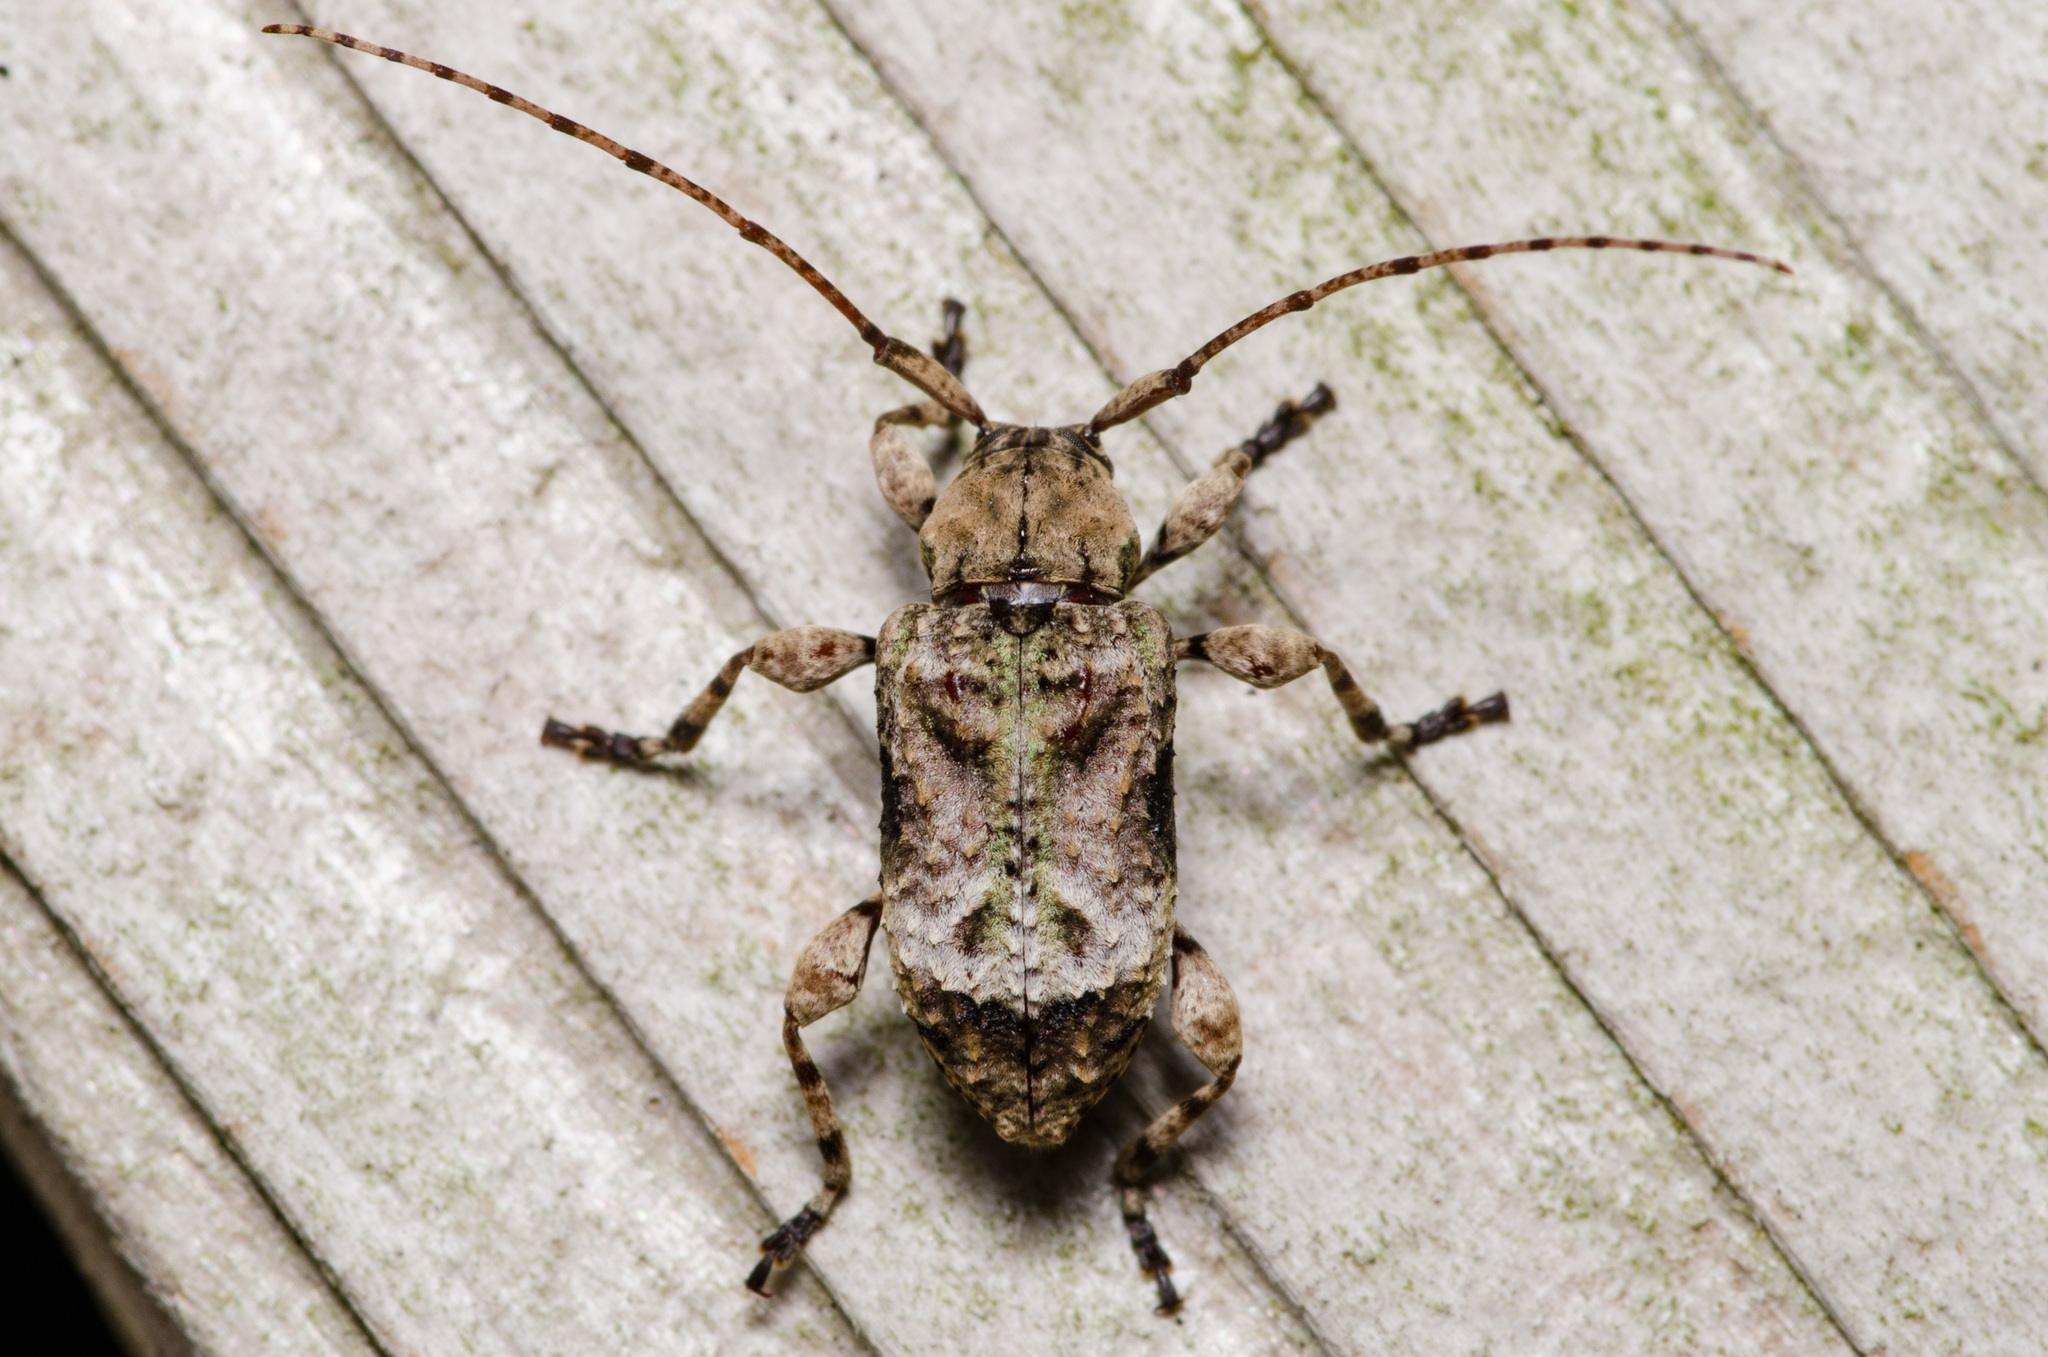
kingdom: Animalia
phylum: Arthropoda
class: Insecta
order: Coleoptera
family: Cerambycidae
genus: Leptostylus
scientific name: Leptostylus transversus
